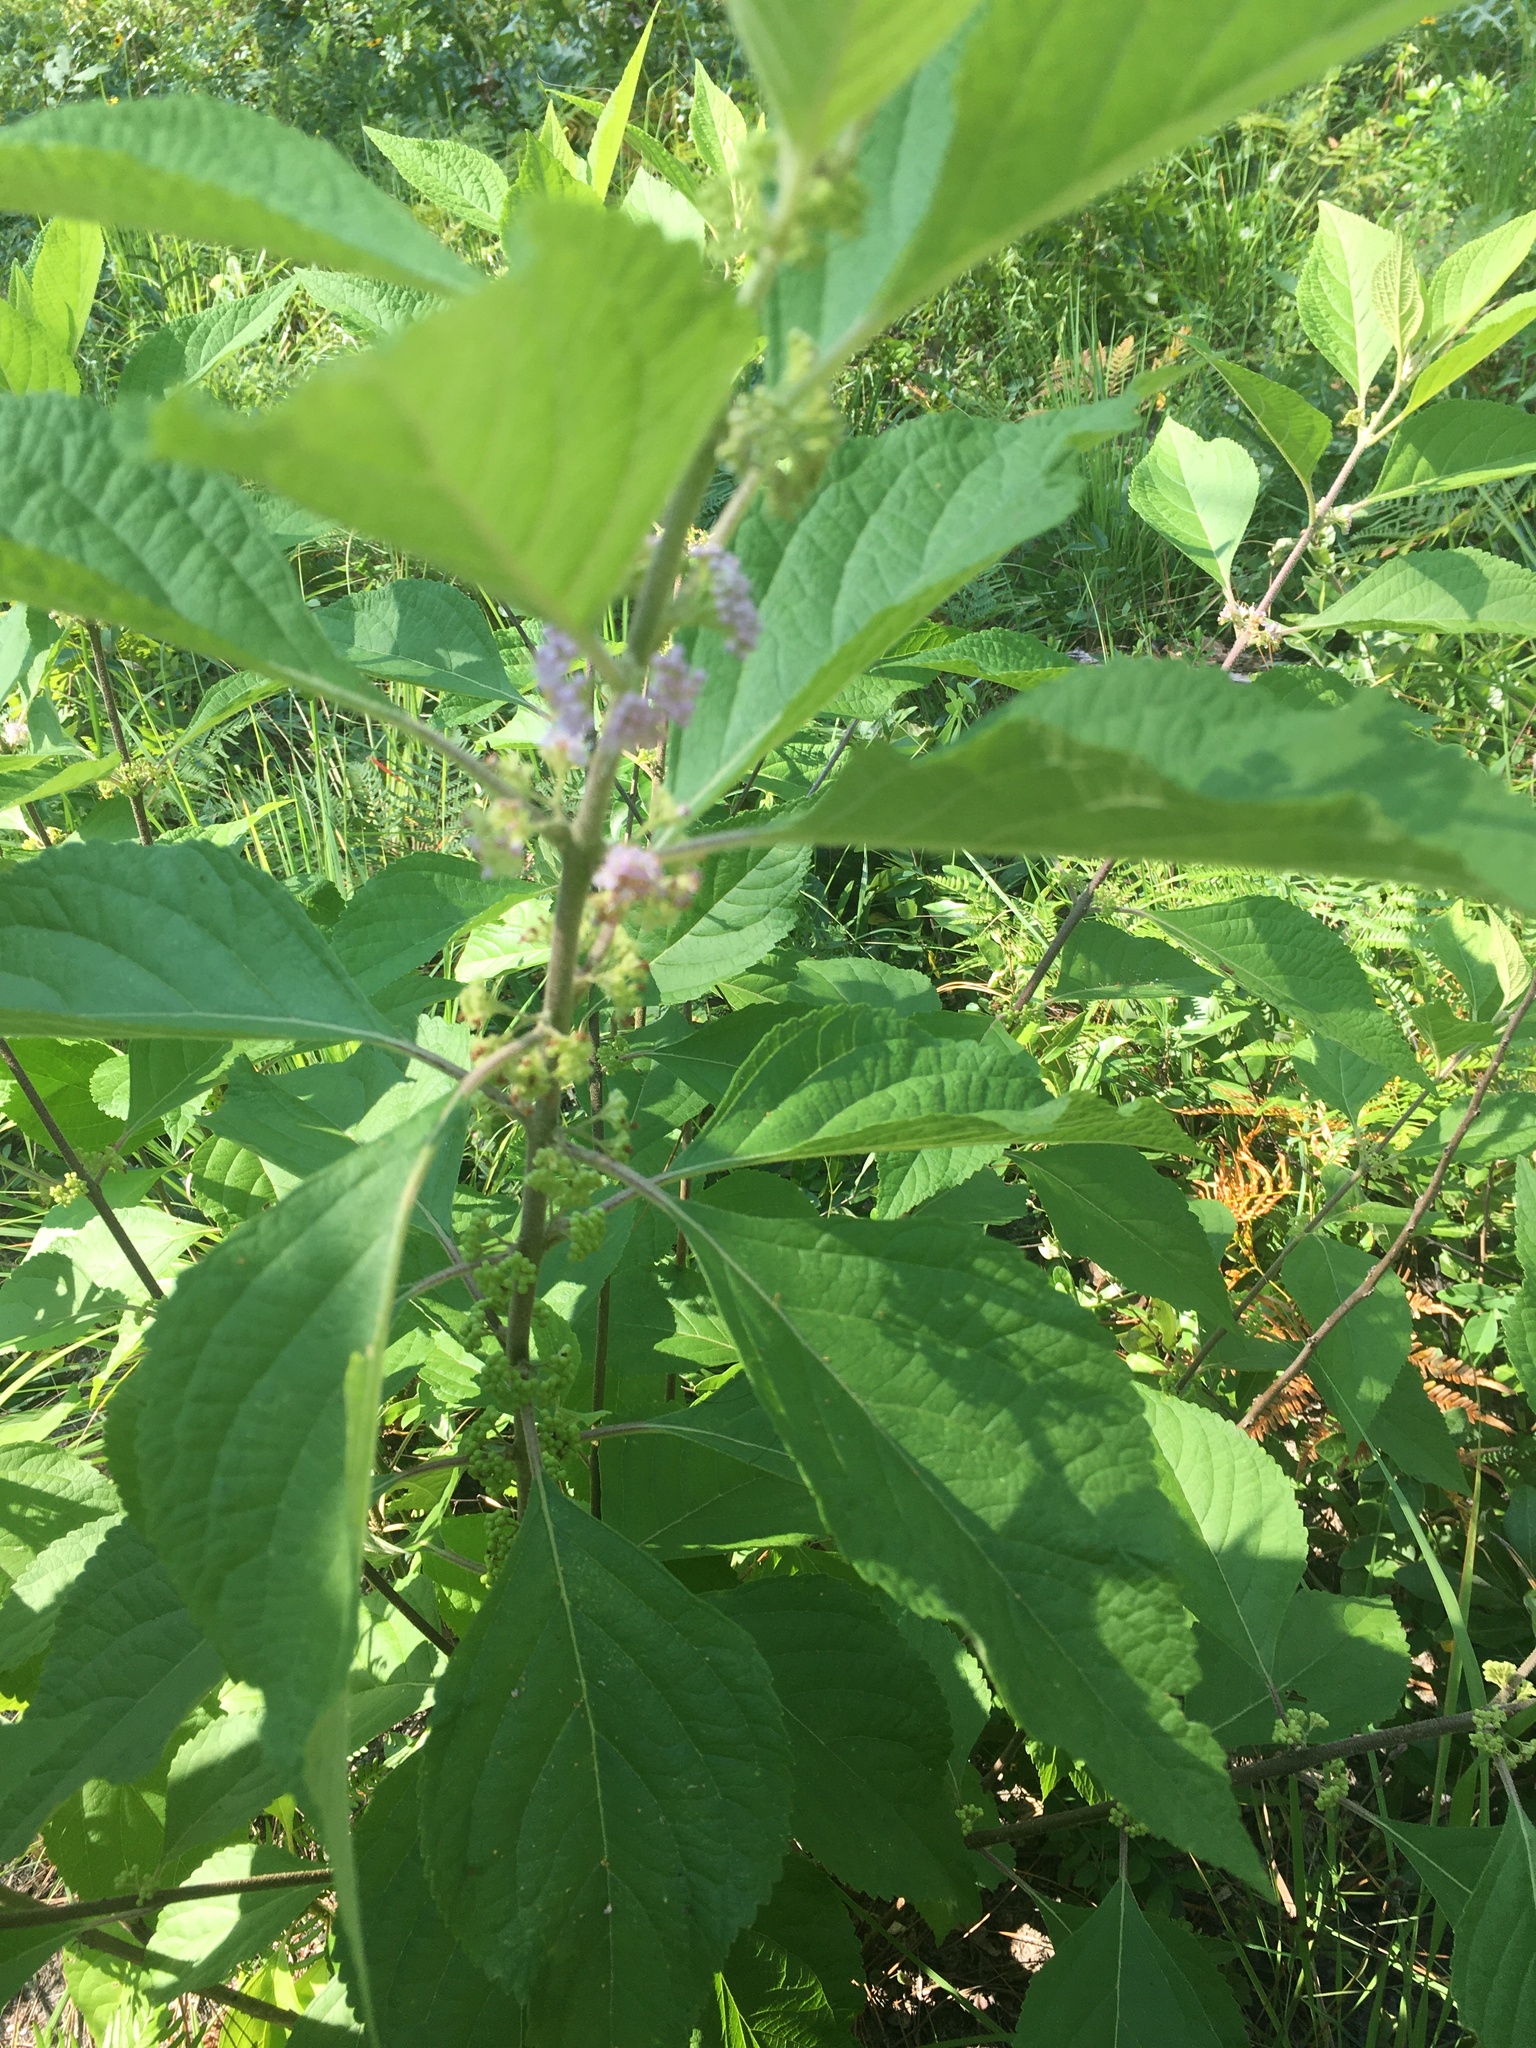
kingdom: Plantae
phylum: Tracheophyta
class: Magnoliopsida
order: Lamiales
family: Lamiaceae
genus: Callicarpa
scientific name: Callicarpa americana
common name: American beautyberry
